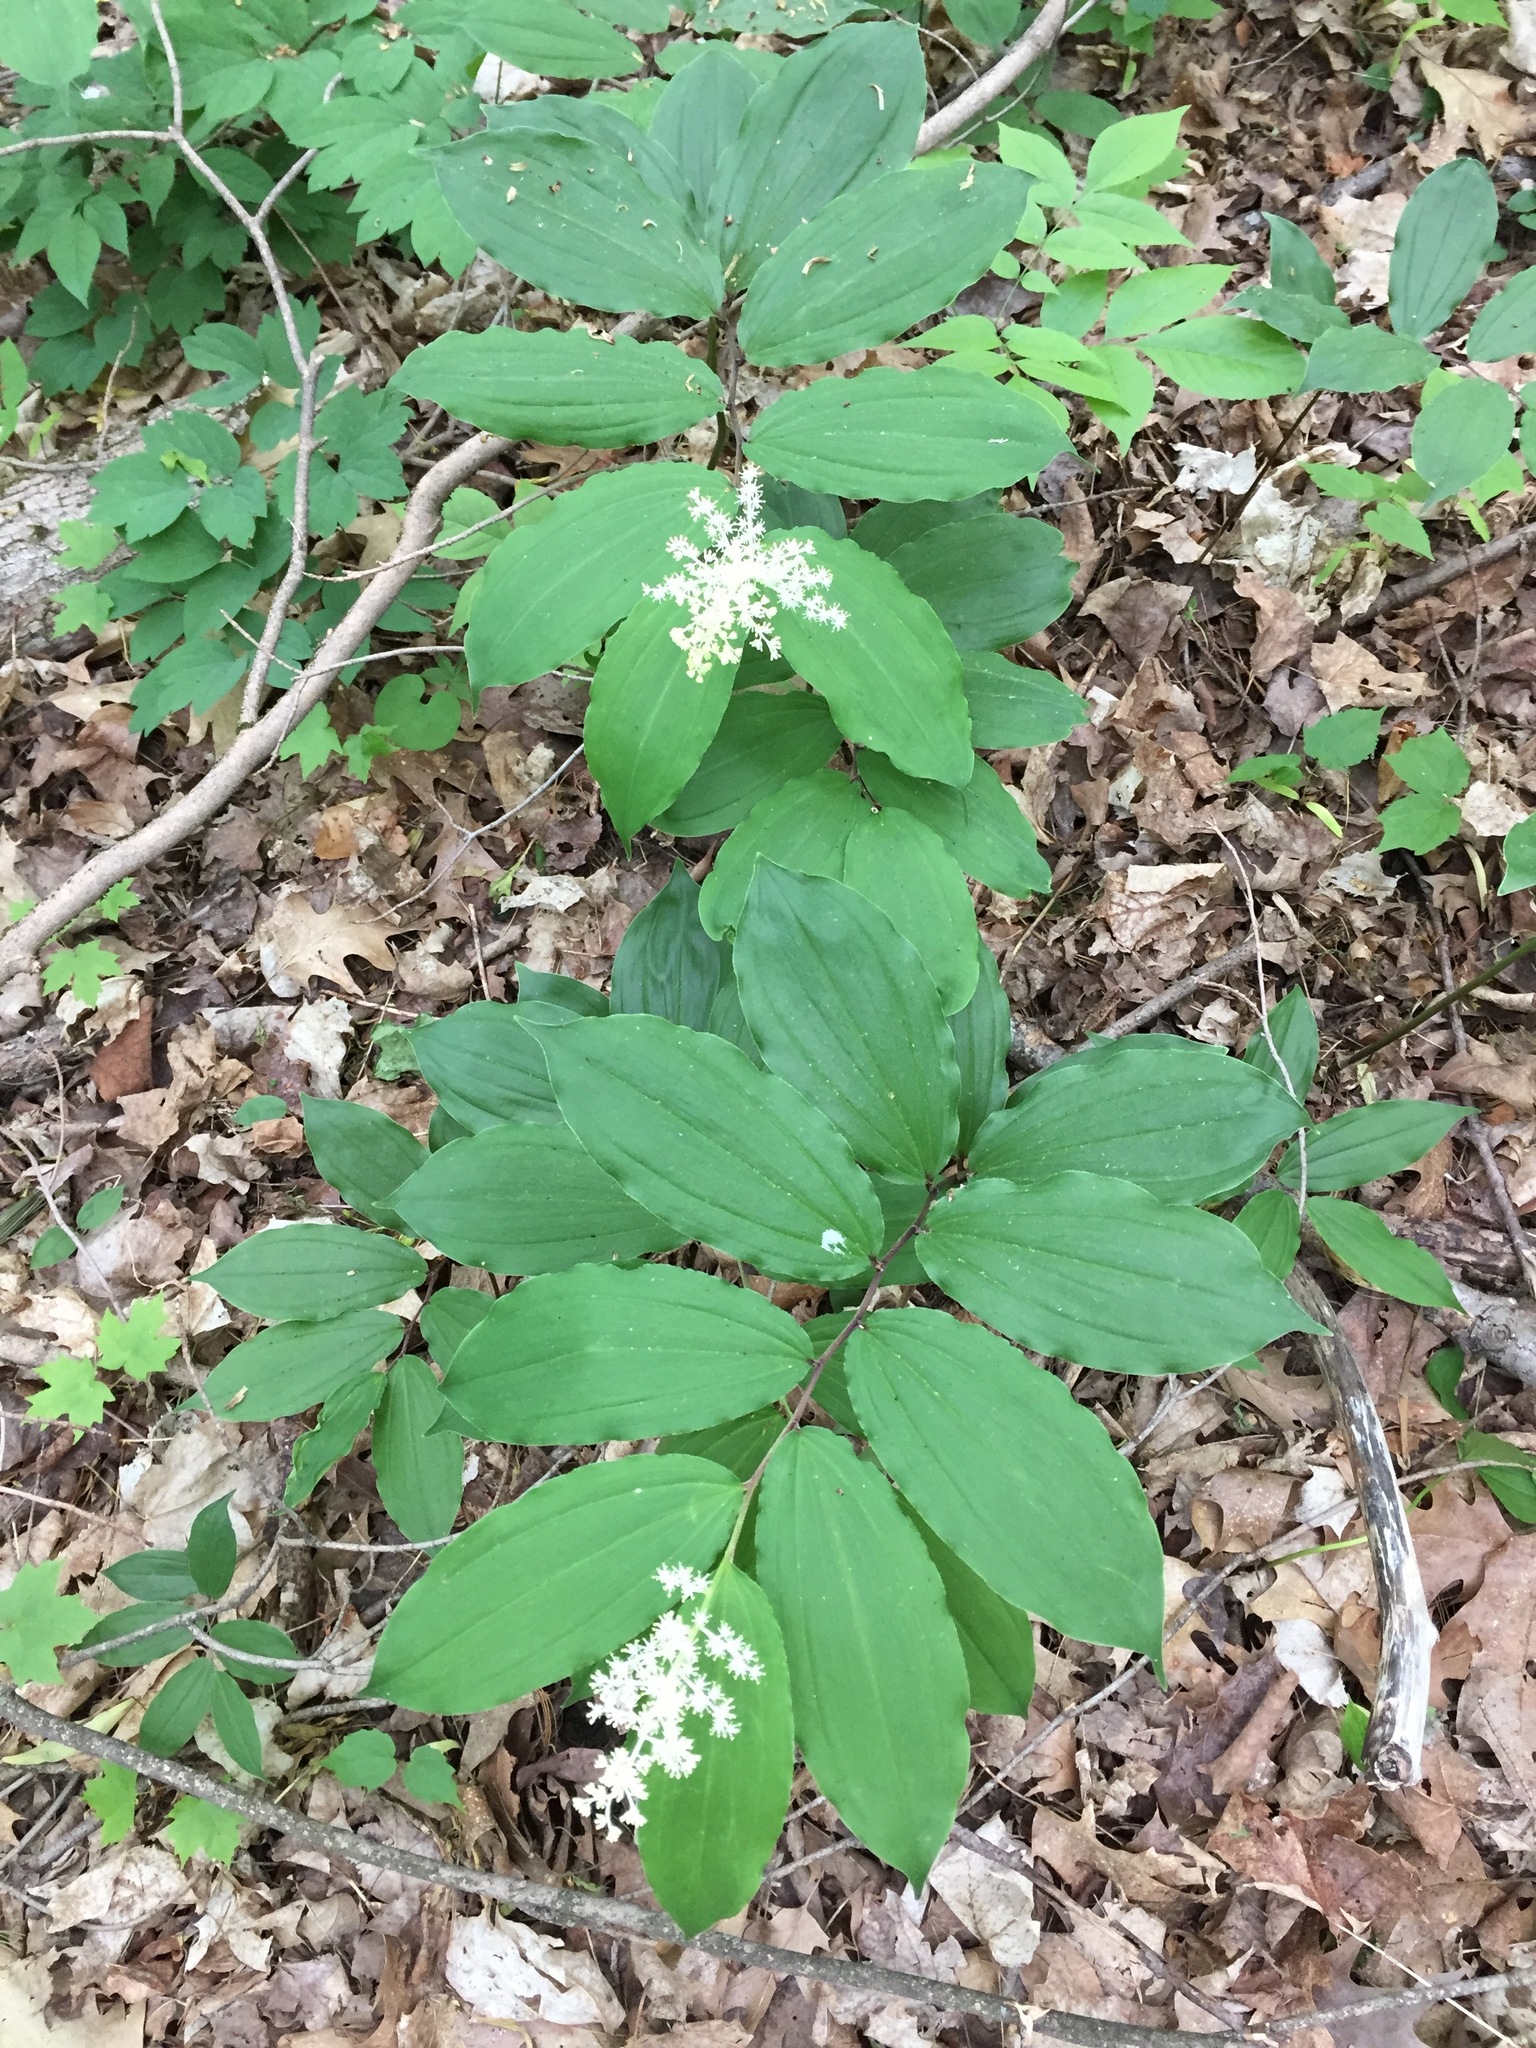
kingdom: Plantae
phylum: Tracheophyta
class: Liliopsida
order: Asparagales
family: Asparagaceae
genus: Maianthemum
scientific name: Maianthemum racemosum
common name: False spikenard
